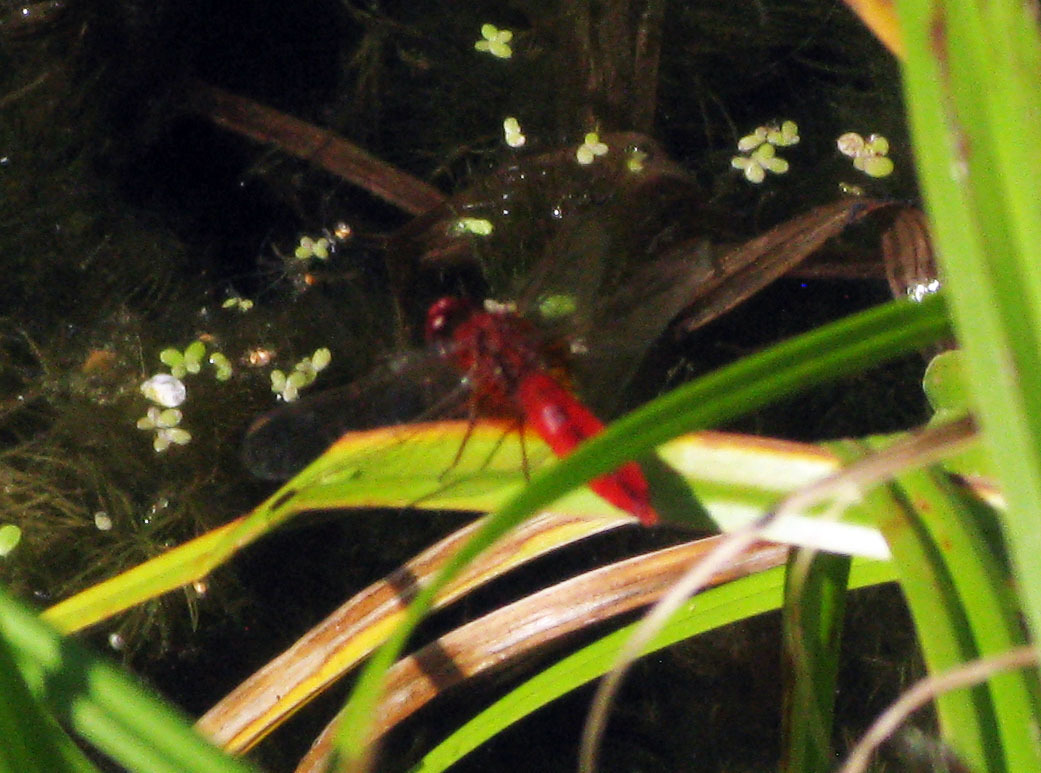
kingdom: Animalia
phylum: Arthropoda
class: Insecta
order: Odonata
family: Libellulidae
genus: Crocothemis
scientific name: Crocothemis erythraea
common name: Scarlet dragonfly
